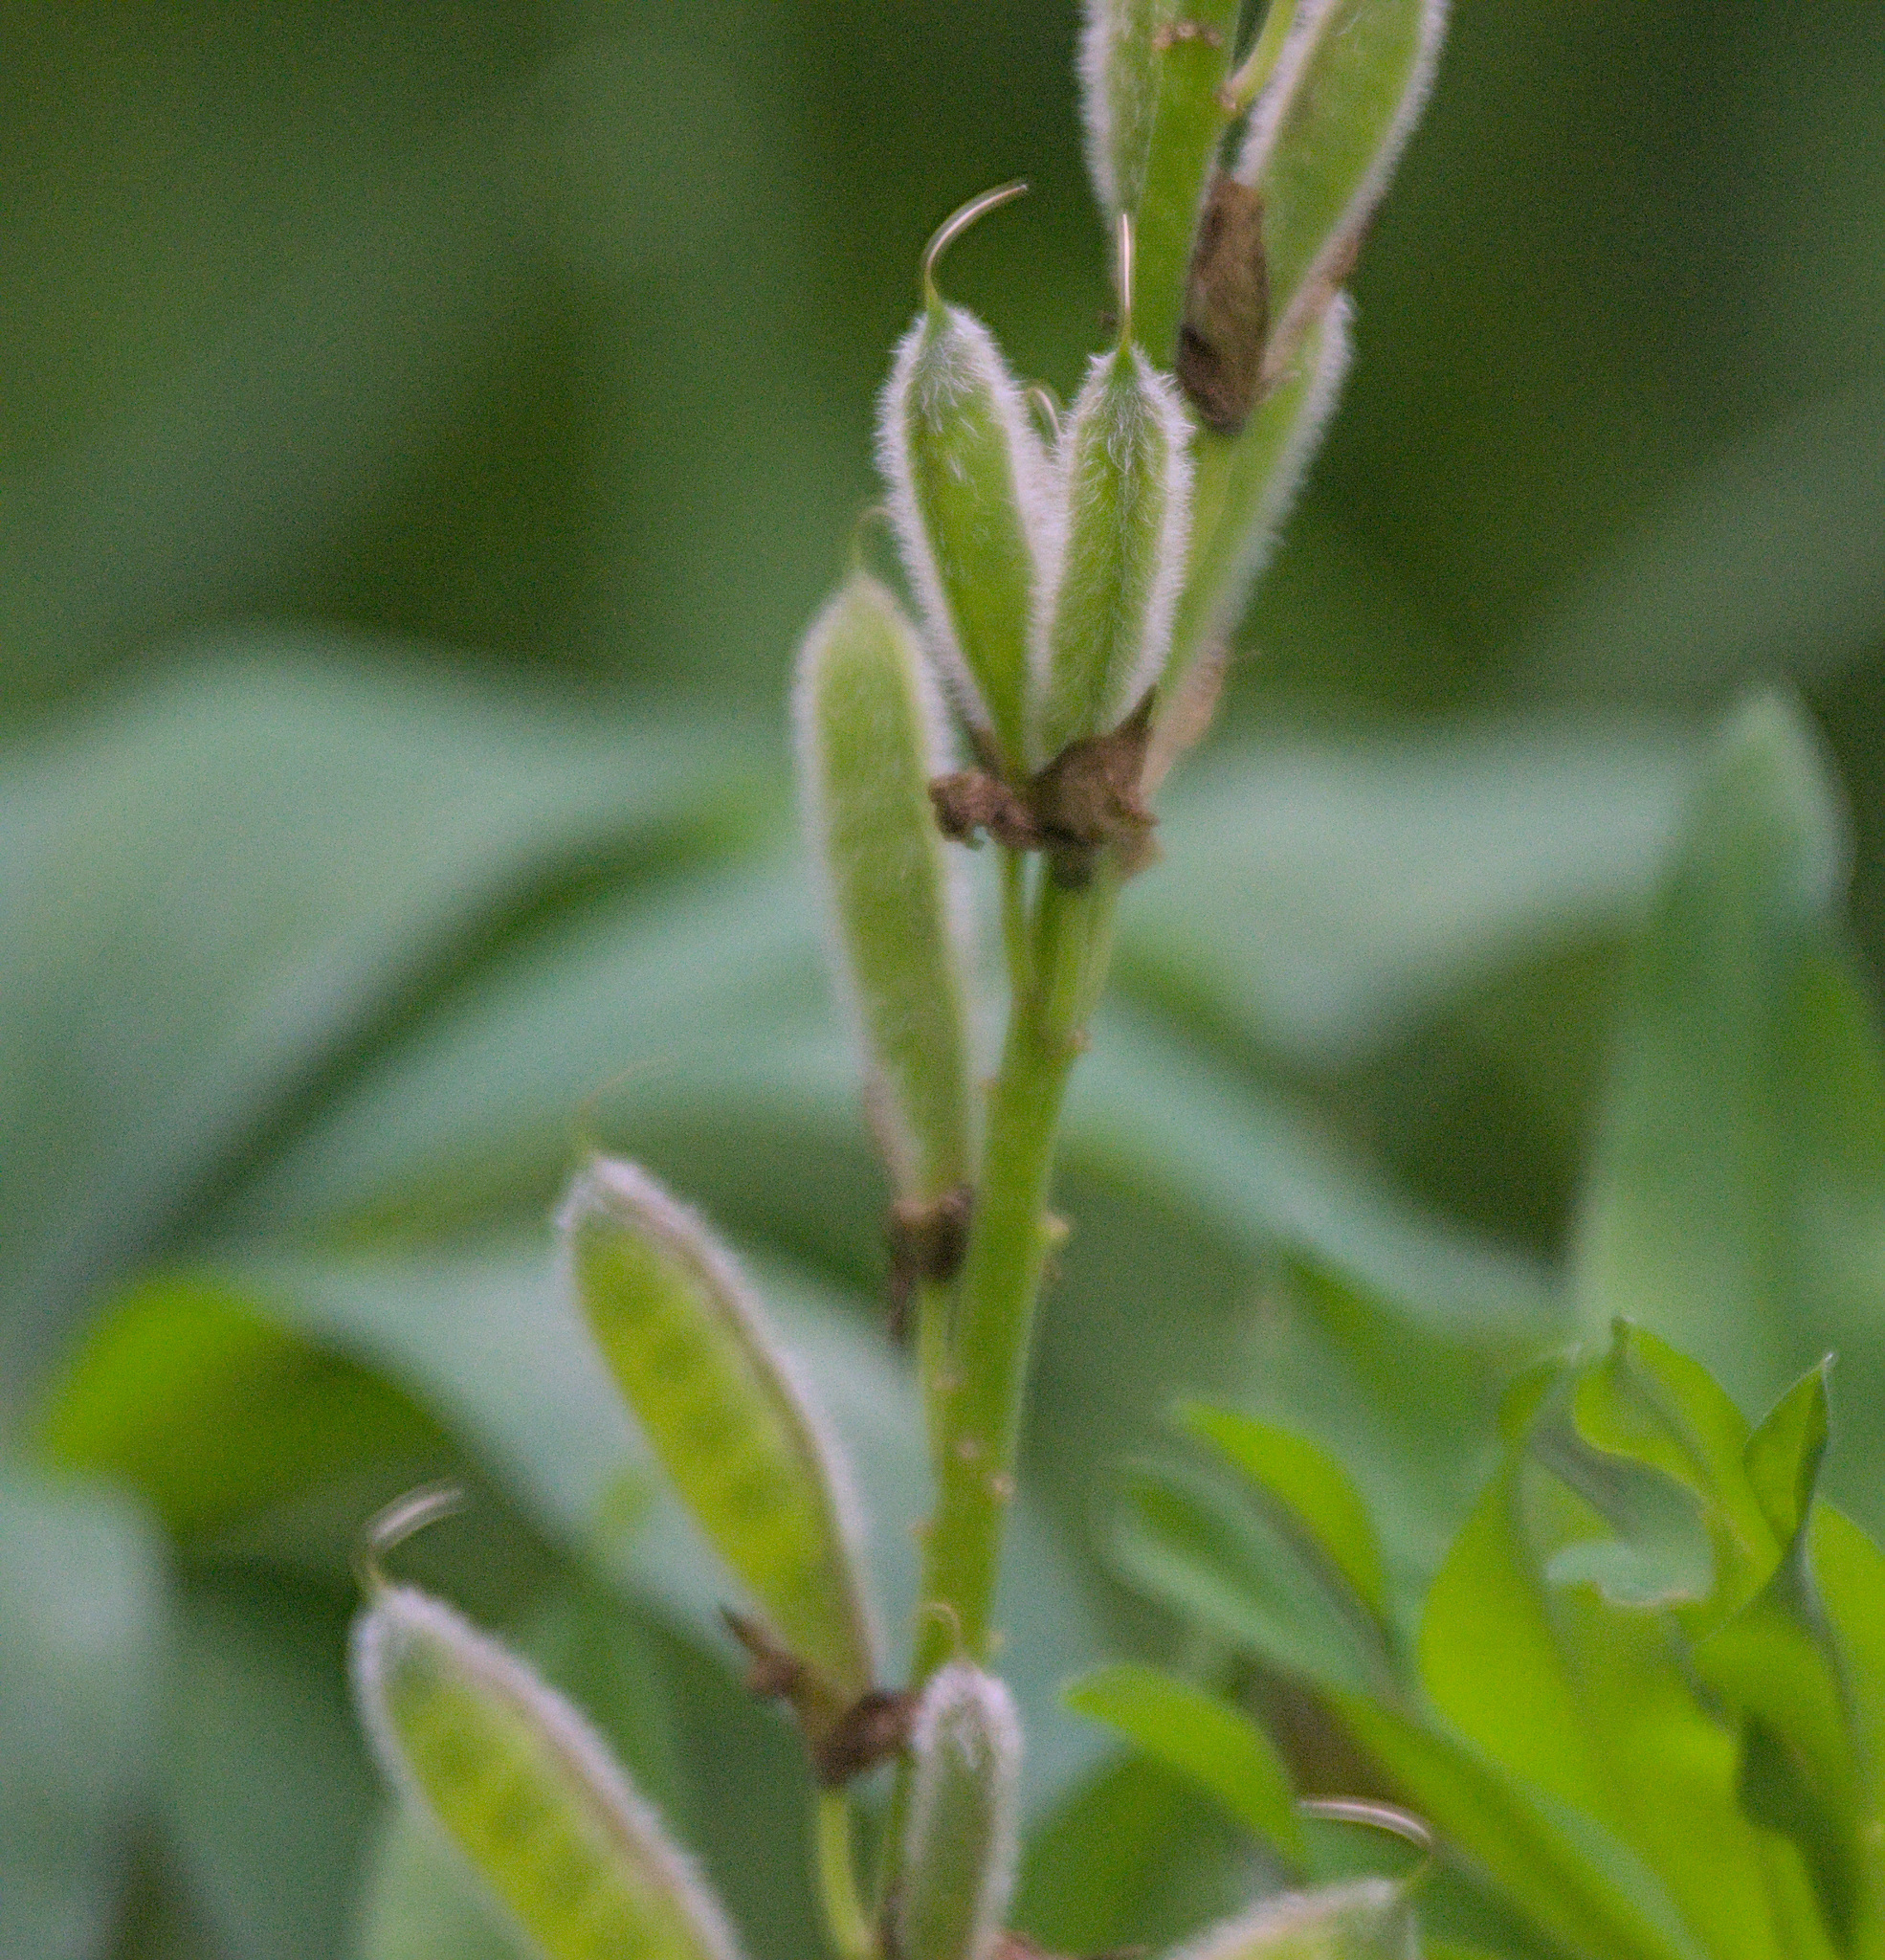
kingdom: Plantae
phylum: Tracheophyta
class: Magnoliopsida
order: Fabales
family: Fabaceae
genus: Lupinus
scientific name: Lupinus polyphyllus
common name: Garden lupin
